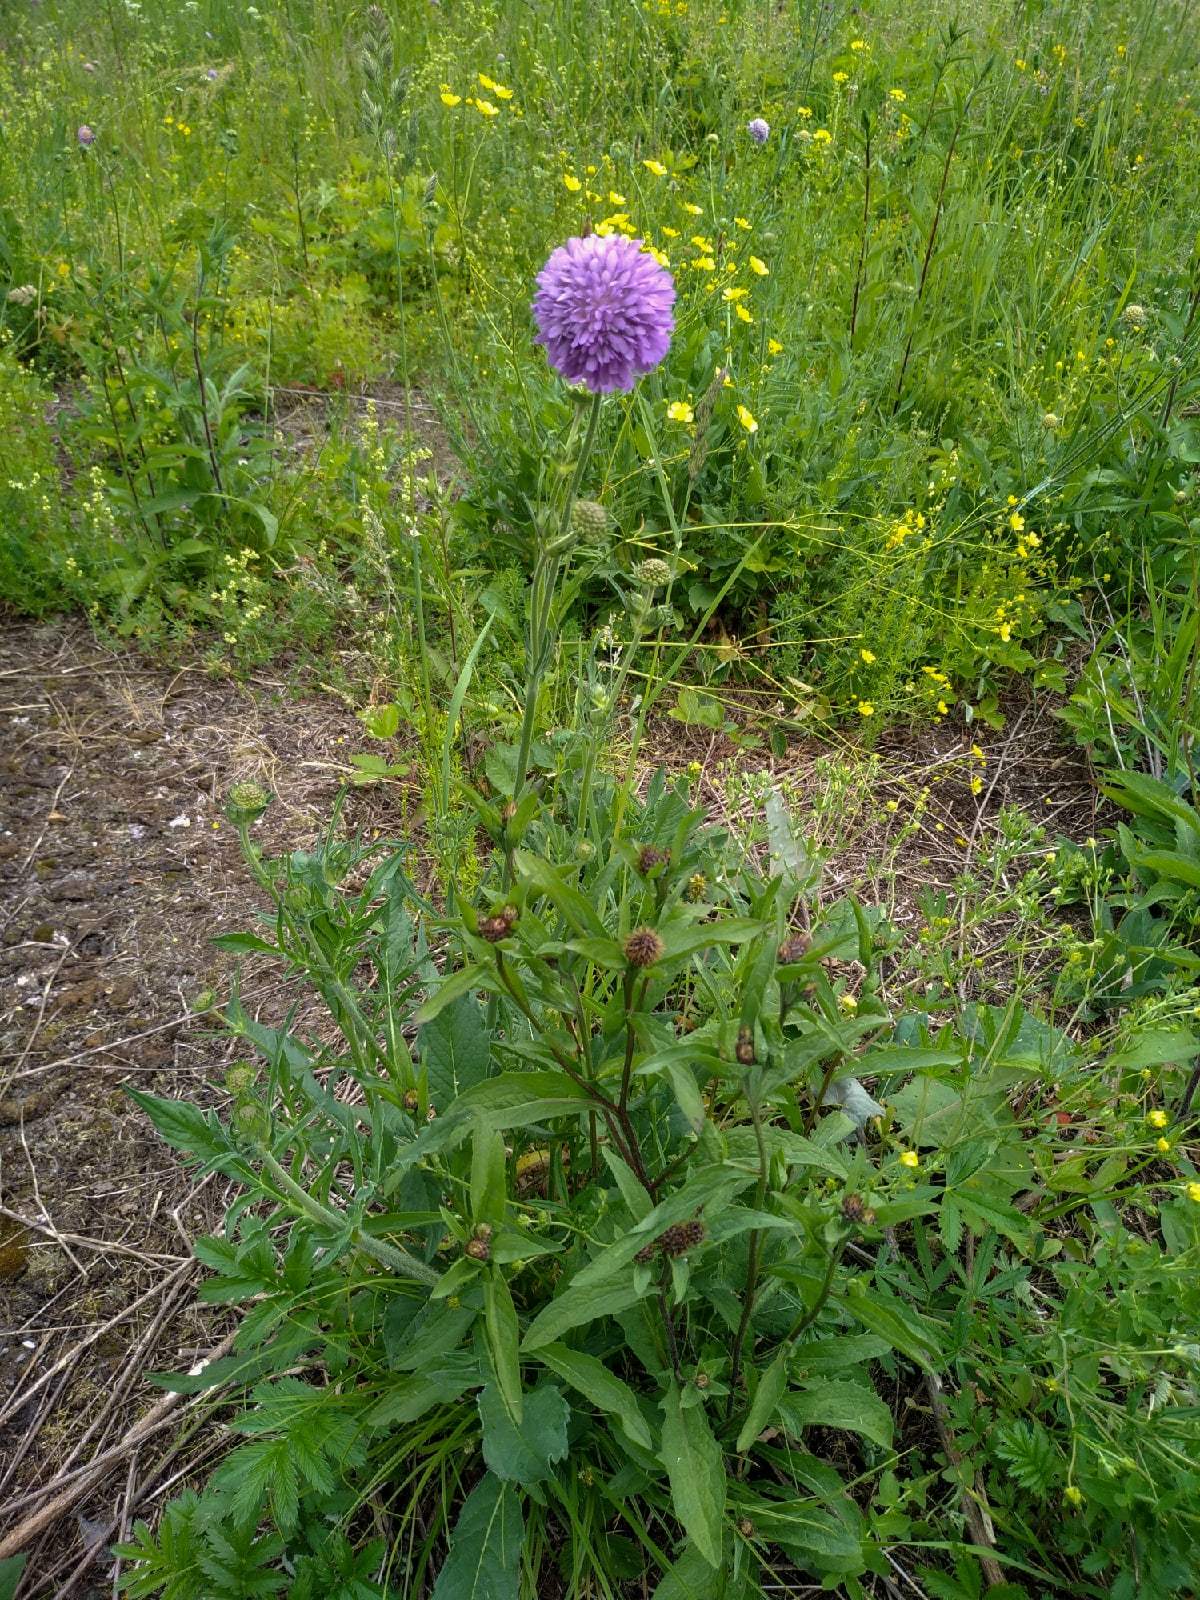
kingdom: Plantae
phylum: Tracheophyta
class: Magnoliopsida
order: Dipsacales
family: Caprifoliaceae
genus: Knautia
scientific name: Knautia arvensis
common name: Field scabiosa
